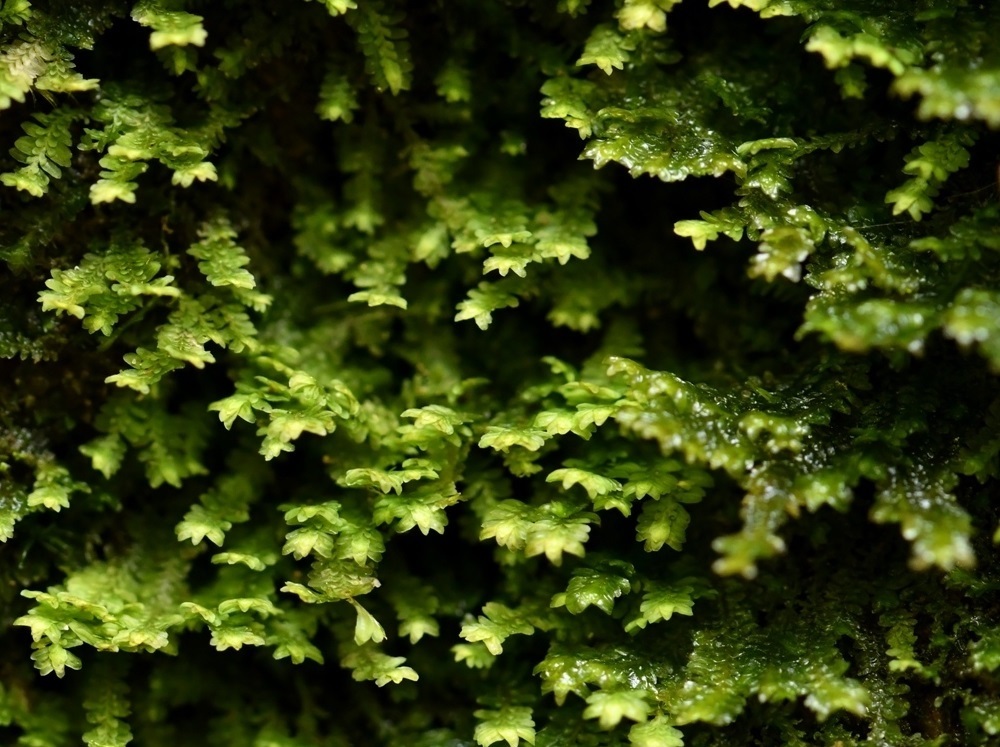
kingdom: Plantae
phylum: Marchantiophyta
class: Jungermanniopsida
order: Jungermanniales
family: Scapaniaceae
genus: Diplophyllum
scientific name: Diplophyllum albicans
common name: White earwort
